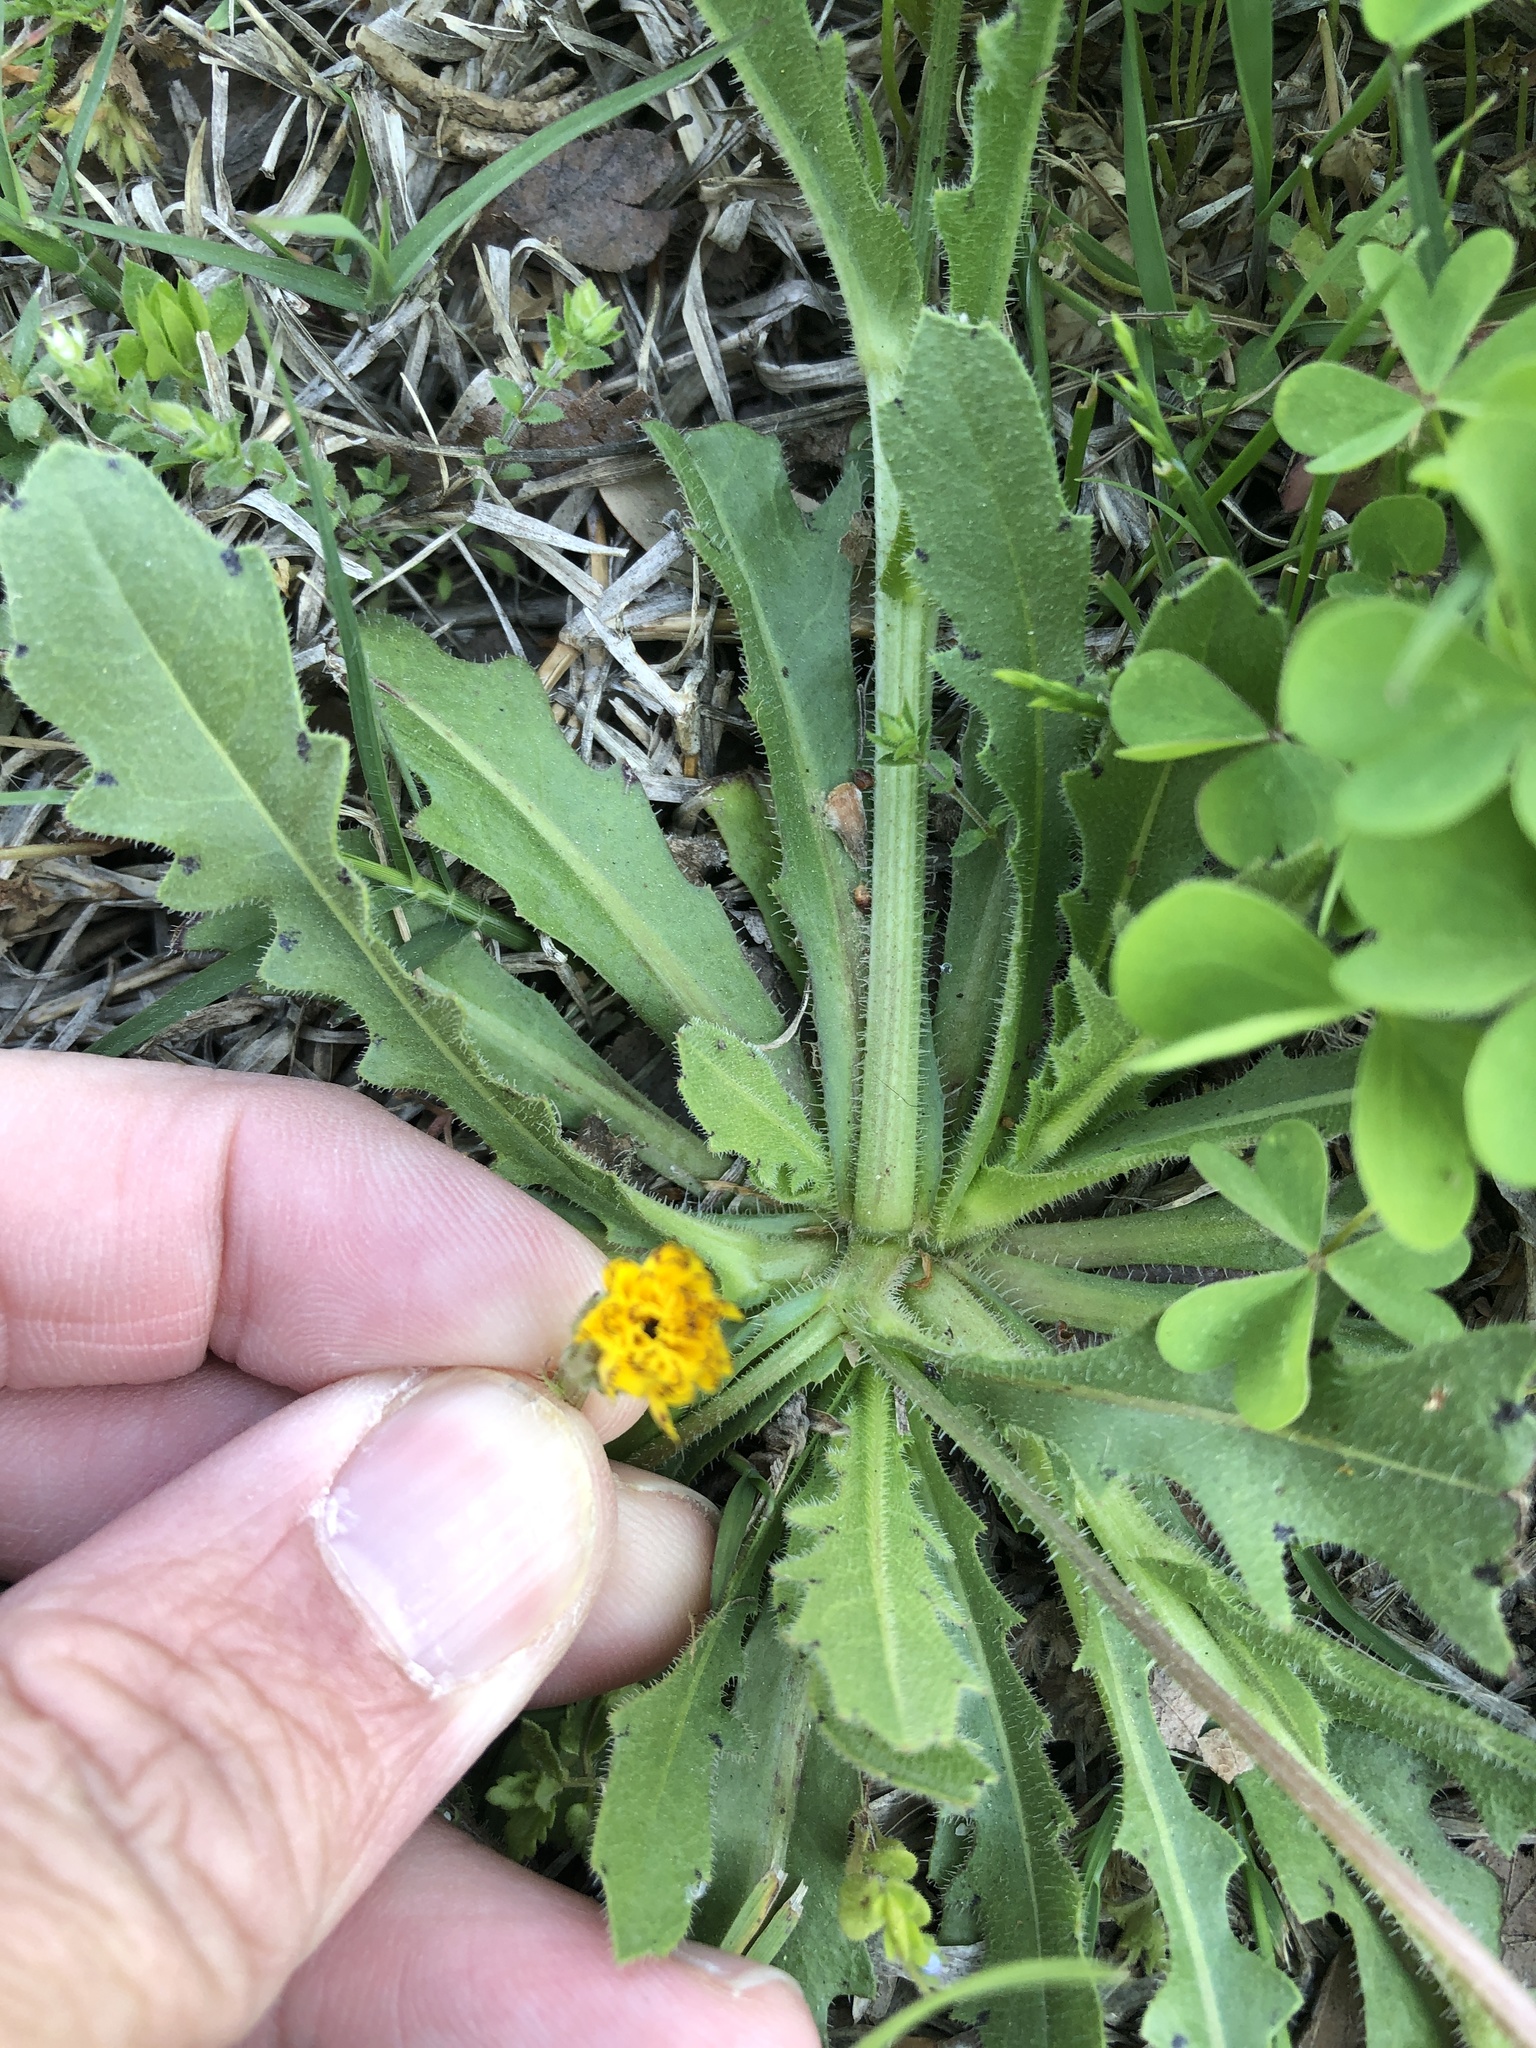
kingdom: Plantae
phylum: Tracheophyta
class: Magnoliopsida
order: Asterales
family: Asteraceae
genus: Hedypnois
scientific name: Hedypnois rhagadioloides
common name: Cretan weed
